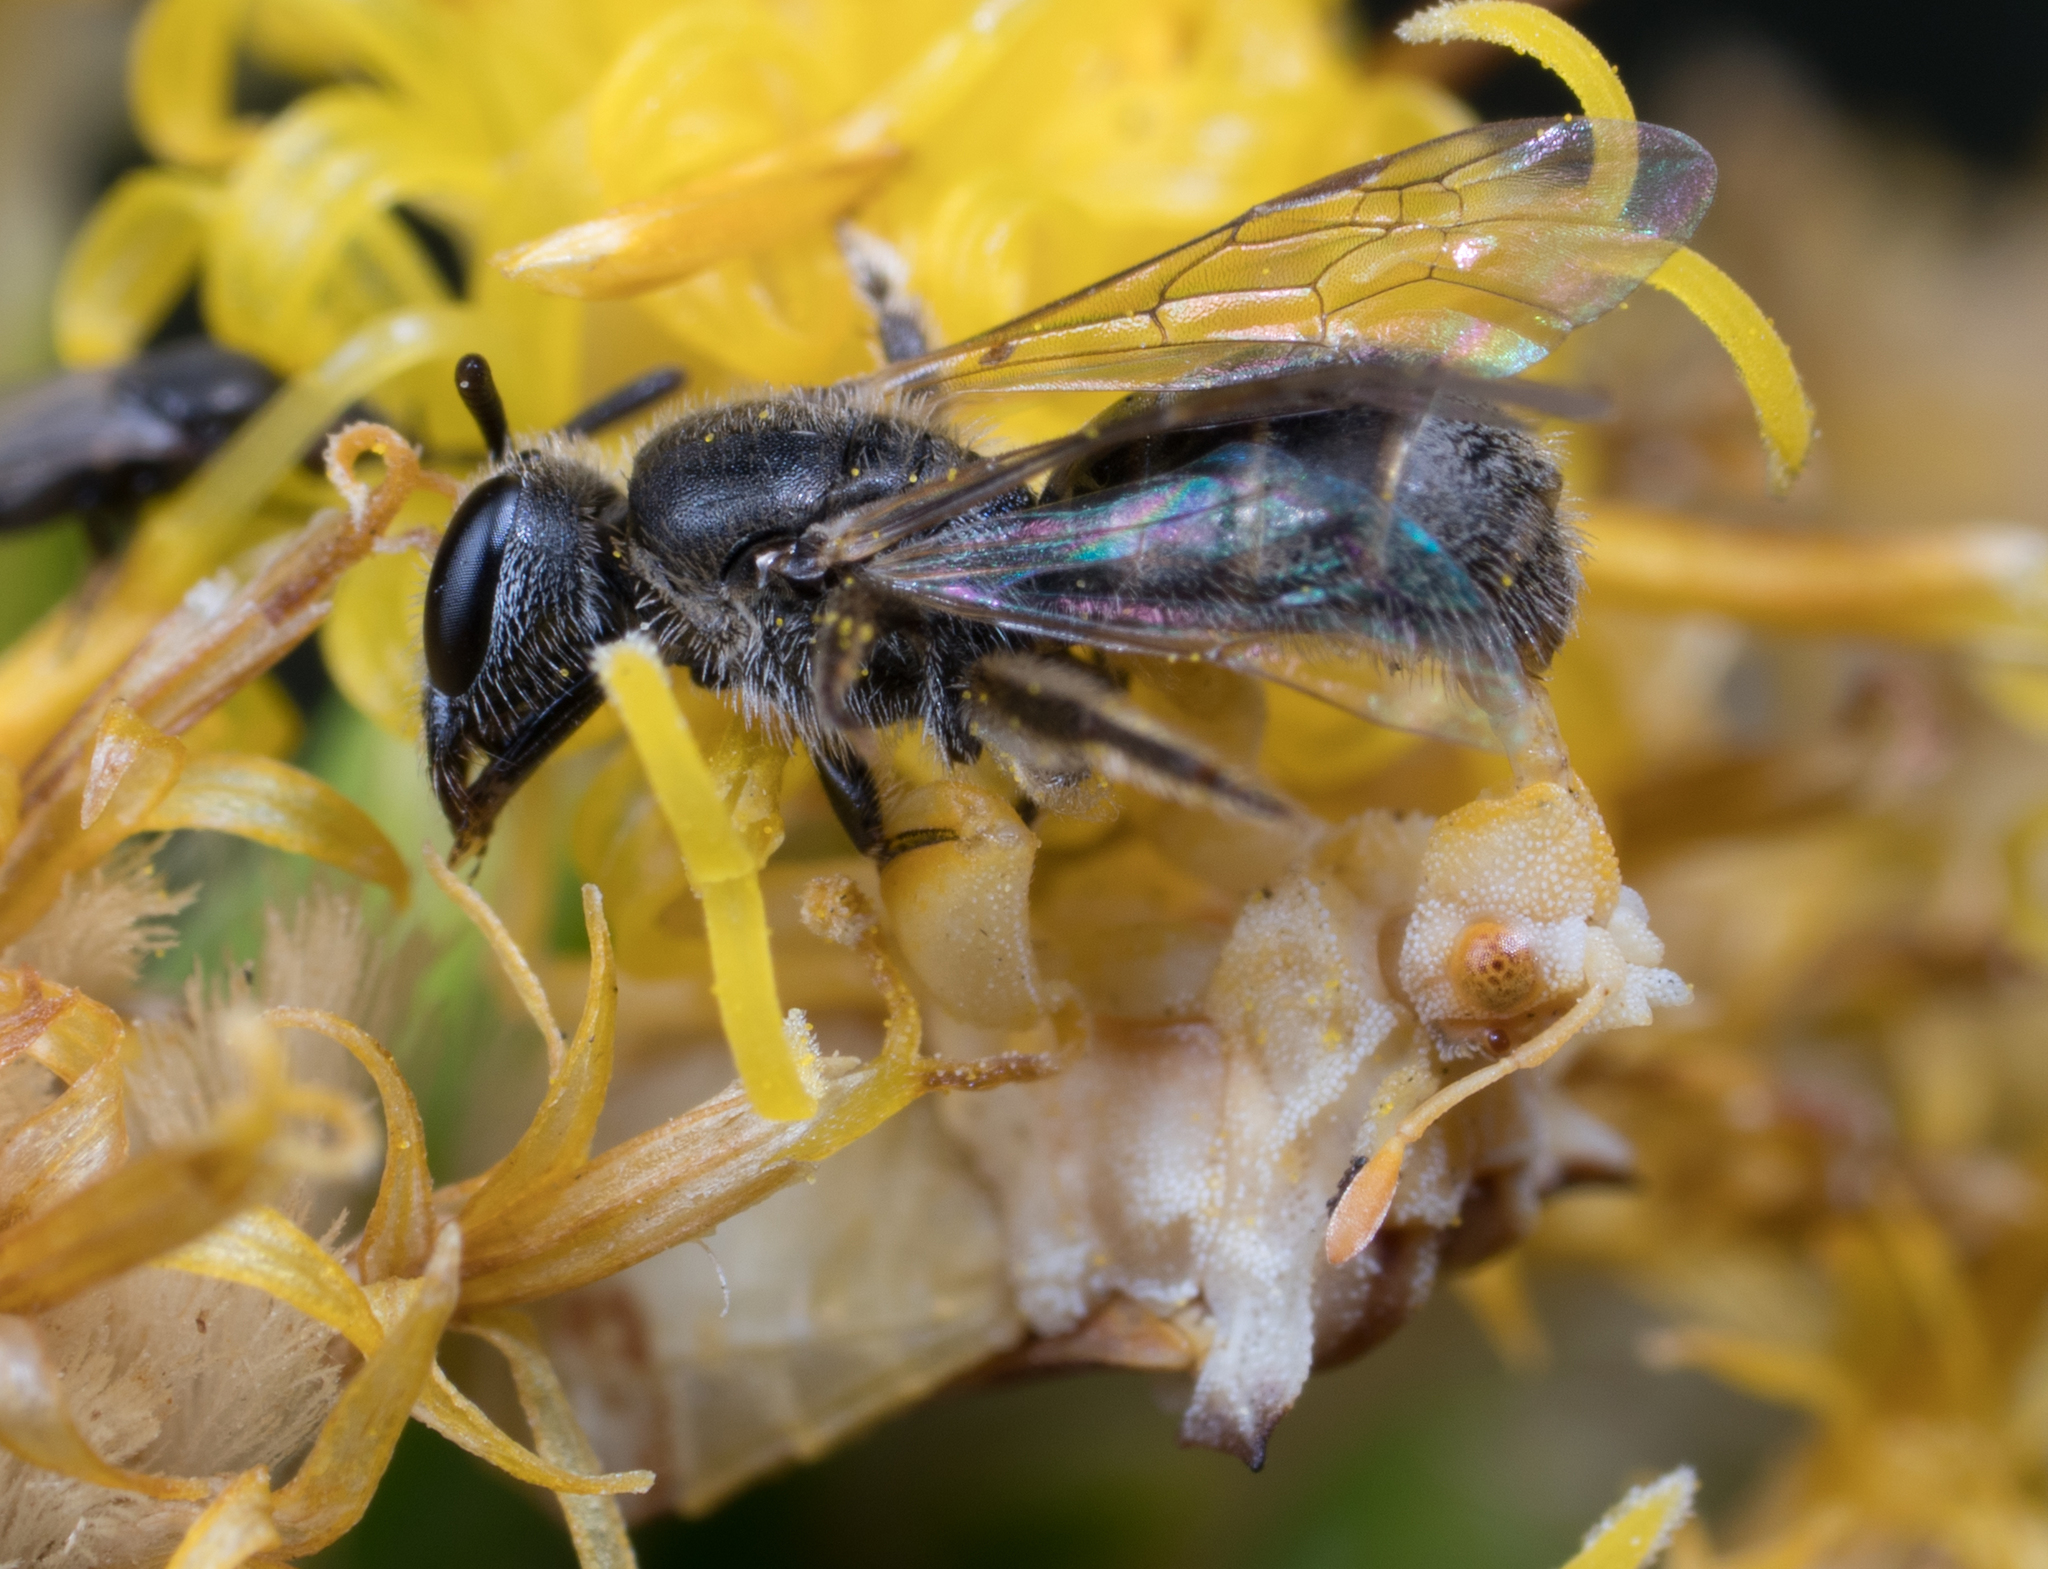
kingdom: Animalia
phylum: Arthropoda
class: Insecta
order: Hemiptera
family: Reduviidae
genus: Phymata
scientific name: Phymata pacifica
